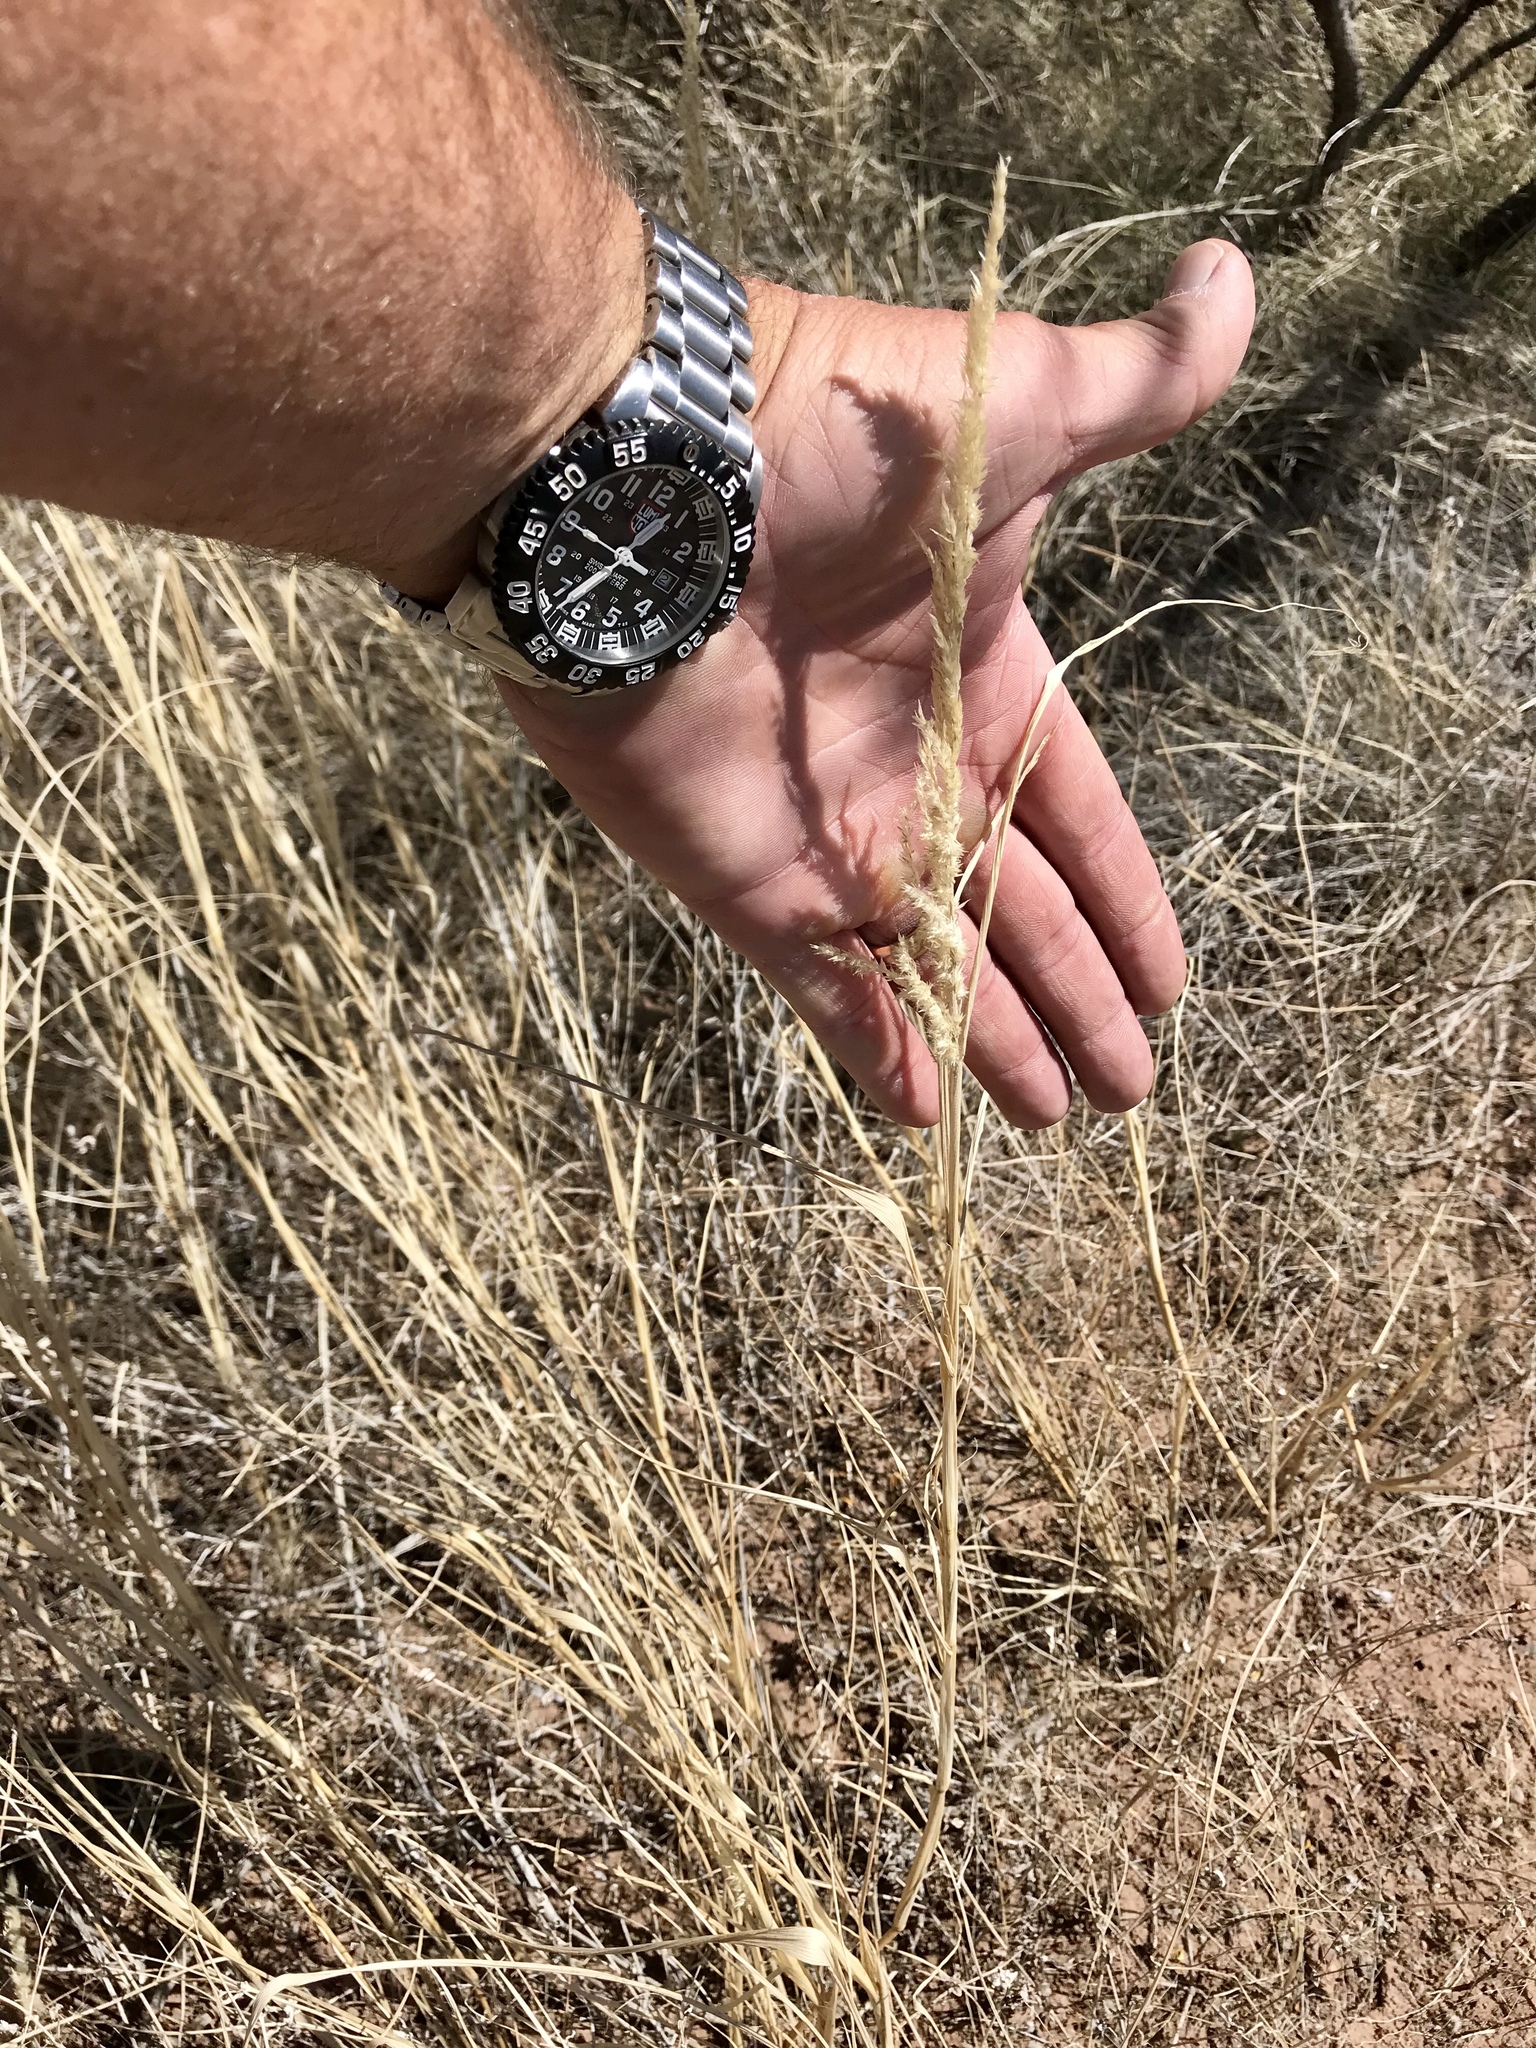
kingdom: Plantae
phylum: Tracheophyta
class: Liliopsida
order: Poales
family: Poaceae
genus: Enneapogon
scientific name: Enneapogon cenchroides
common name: Soft feather pappusgrass
